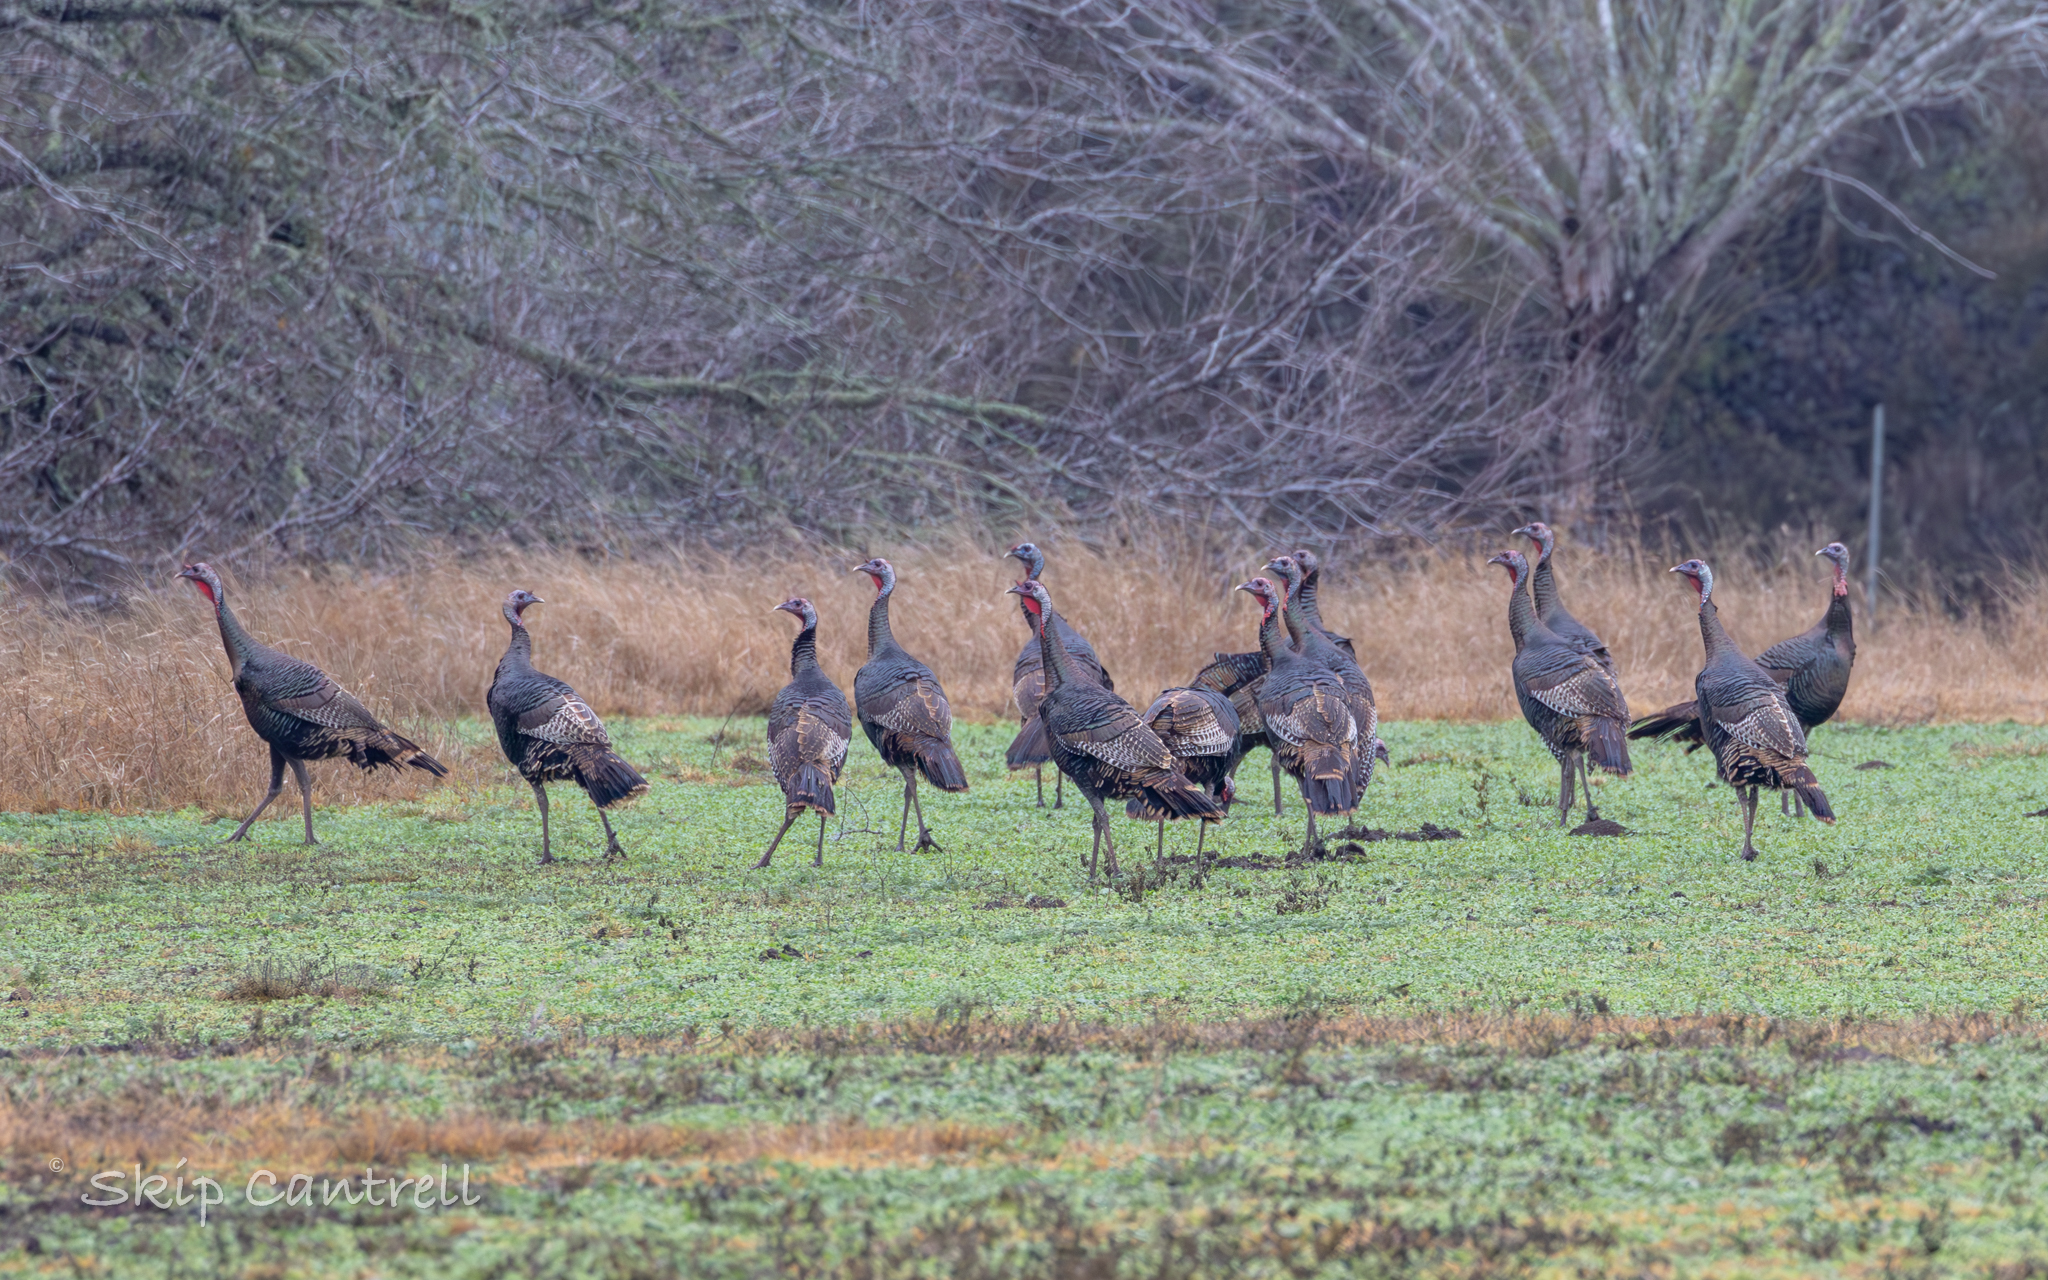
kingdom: Animalia
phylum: Chordata
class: Aves
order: Galliformes
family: Phasianidae
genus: Meleagris
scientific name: Meleagris gallopavo
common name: Wild turkey
